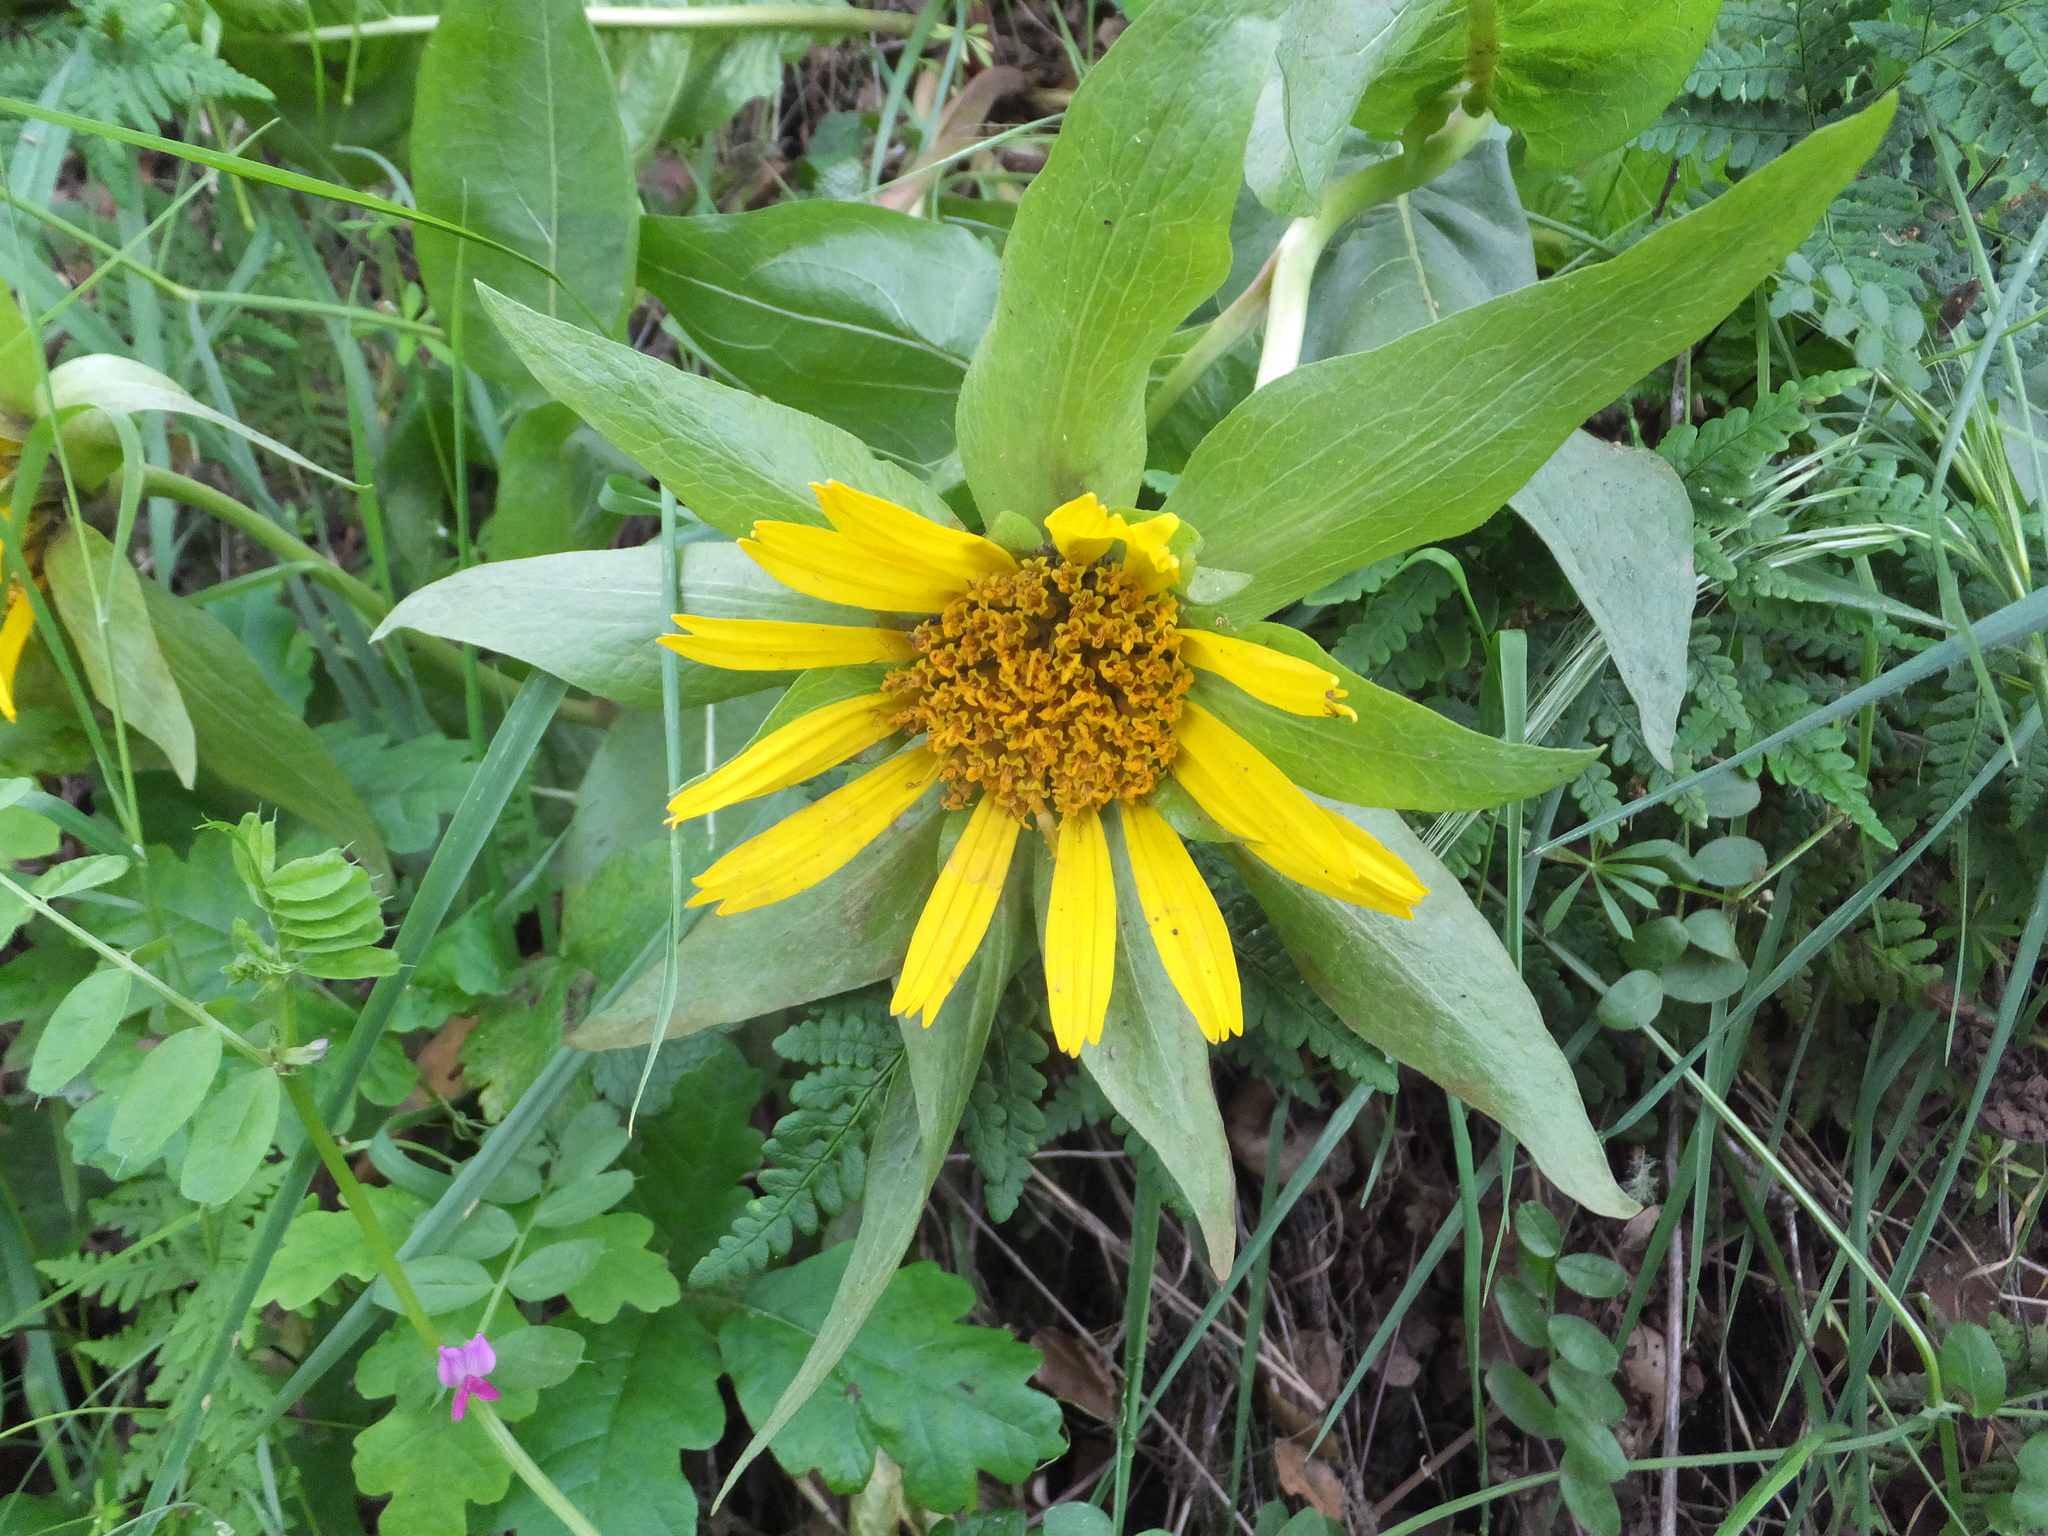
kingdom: Plantae
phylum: Tracheophyta
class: Magnoliopsida
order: Asterales
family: Asteraceae
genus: Wyethia
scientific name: Wyethia glabra
